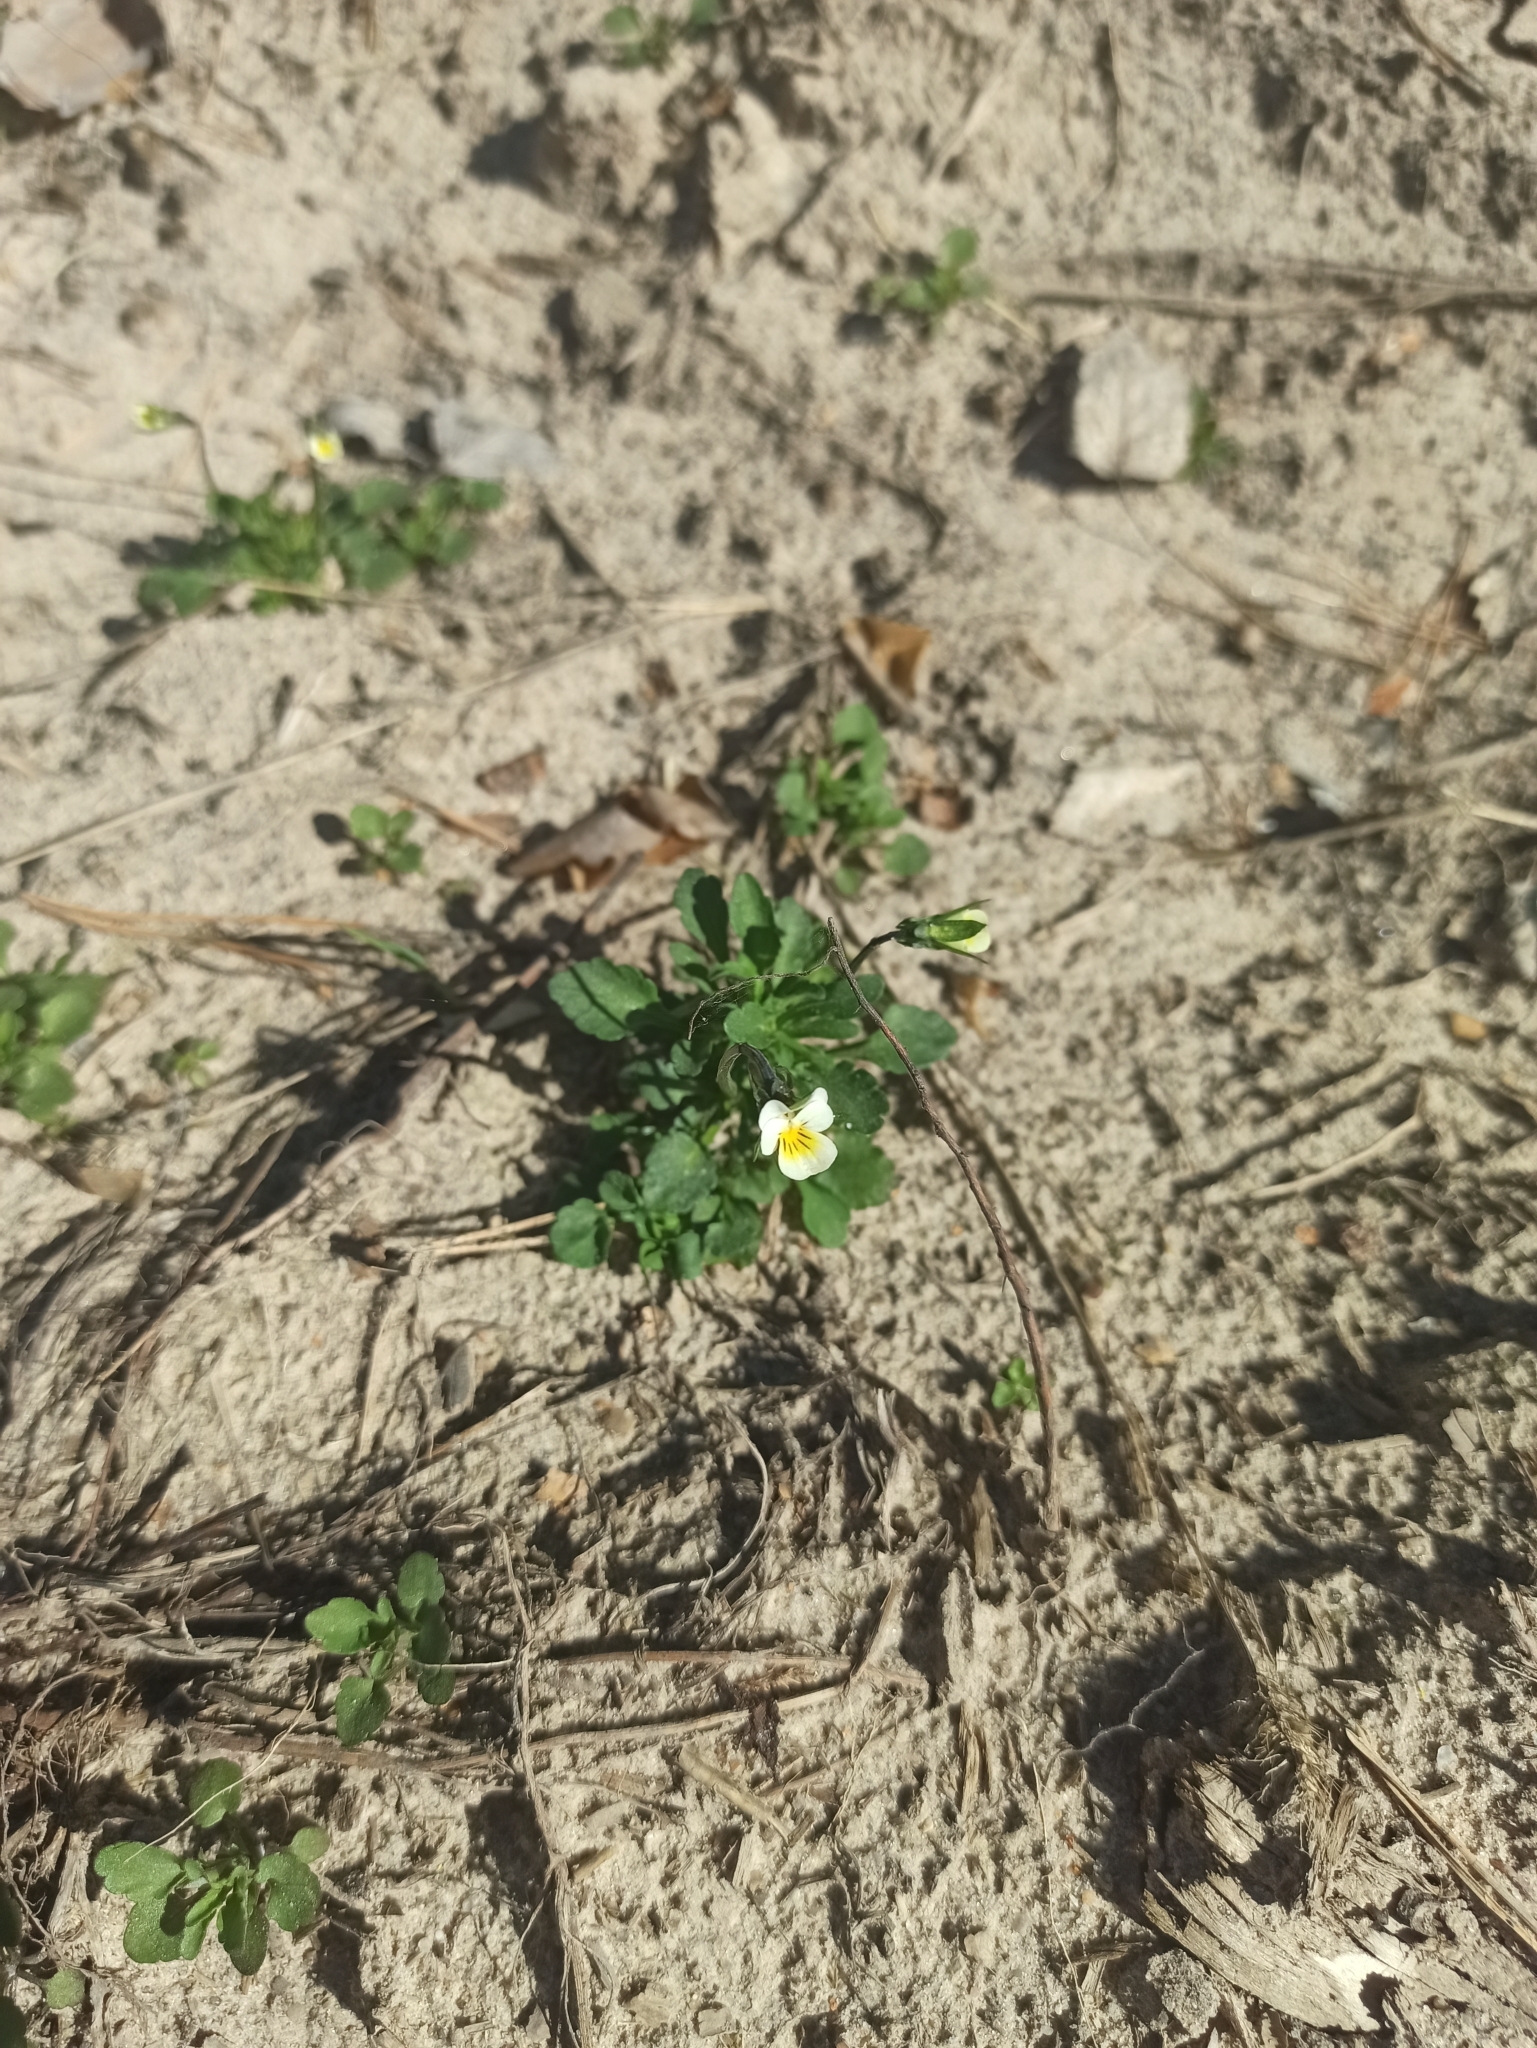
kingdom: Plantae
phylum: Tracheophyta
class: Magnoliopsida
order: Malpighiales
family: Violaceae
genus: Viola
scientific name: Viola arvensis
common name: Field pansy
